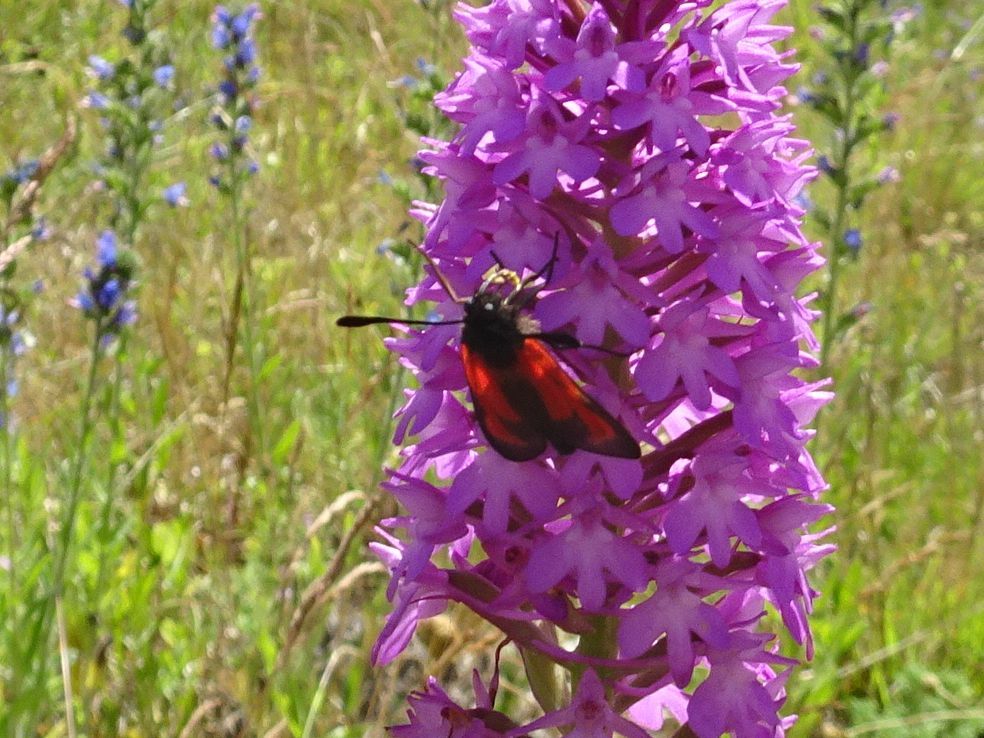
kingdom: Animalia
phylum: Arthropoda
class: Insecta
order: Lepidoptera
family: Zygaenidae
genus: Zygaena
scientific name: Zygaena erythrus
